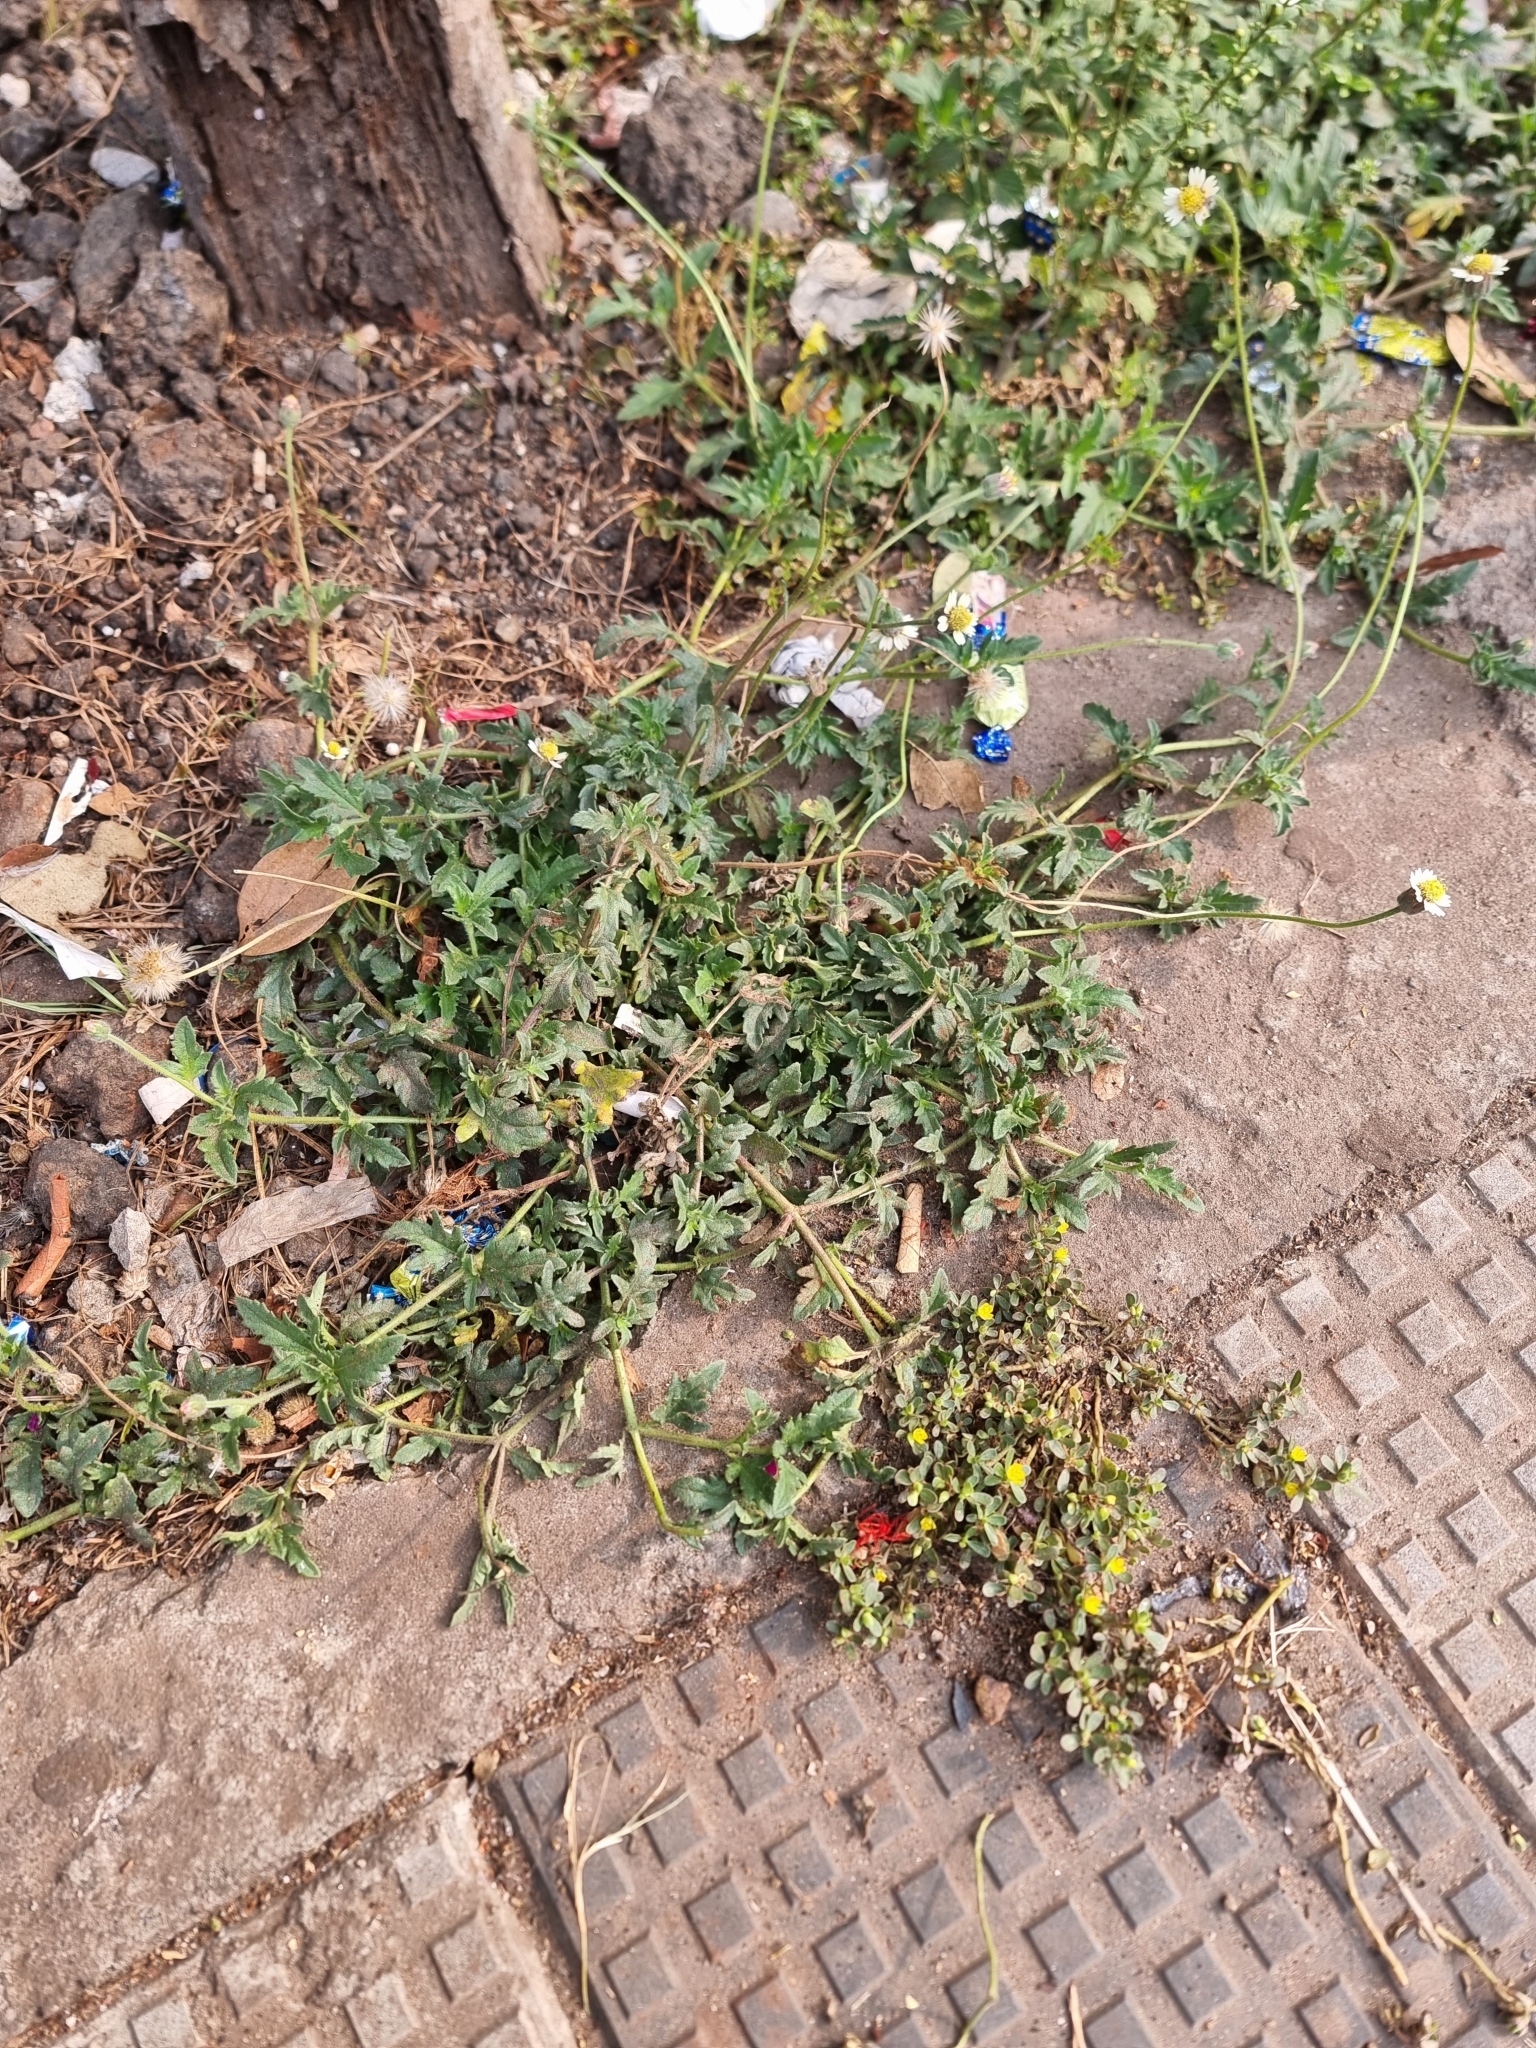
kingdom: Plantae
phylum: Tracheophyta
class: Magnoliopsida
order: Asterales
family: Asteraceae
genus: Tridax
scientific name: Tridax procumbens
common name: Coatbuttons
